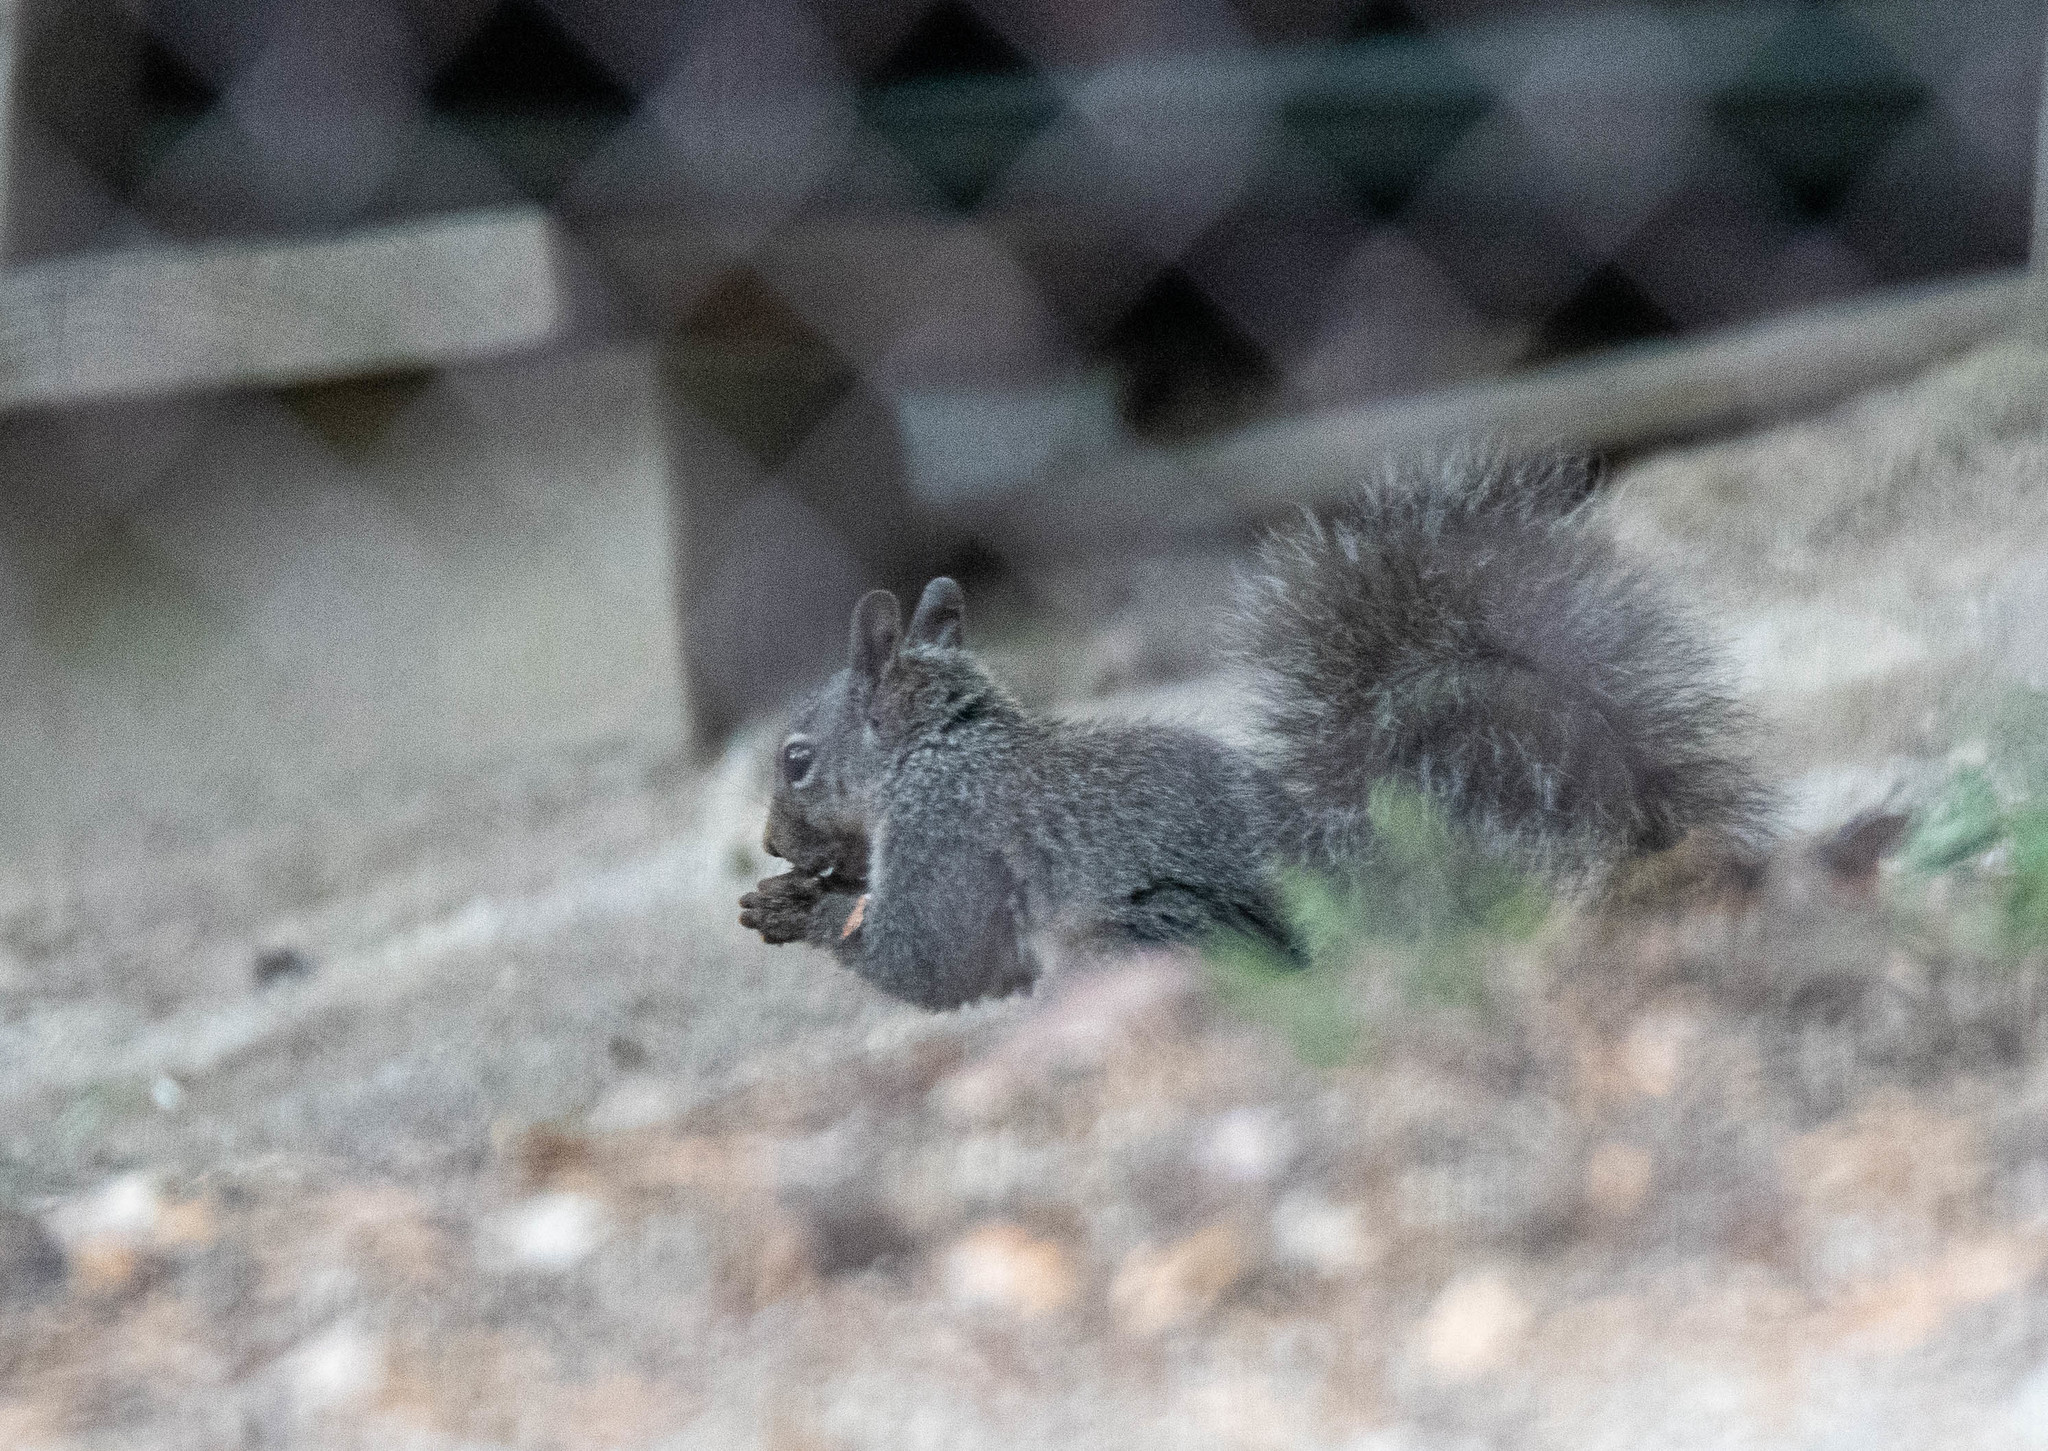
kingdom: Animalia
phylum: Chordata
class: Mammalia
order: Rodentia
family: Sciuridae
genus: Sciurus
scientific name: Sciurus griseus
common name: Western gray squirrel
